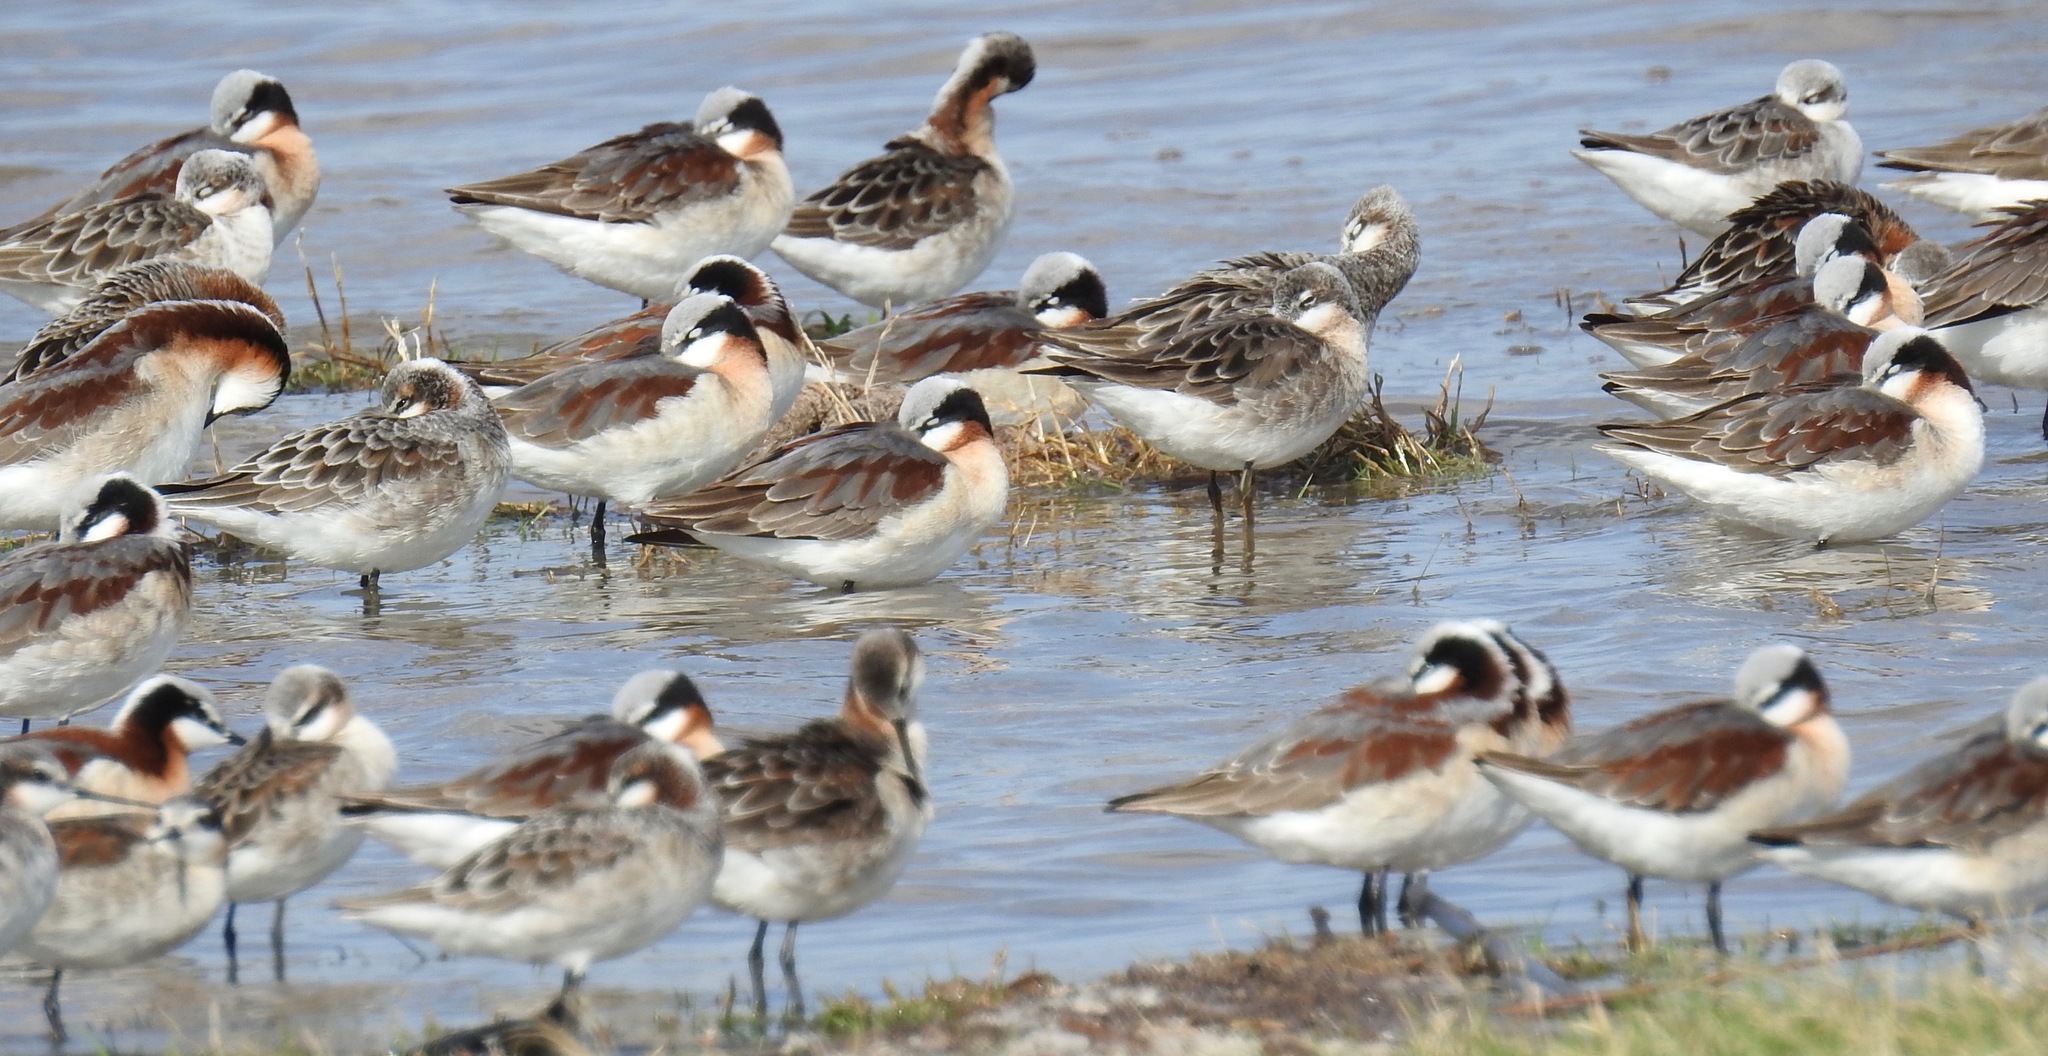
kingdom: Animalia
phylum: Chordata
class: Aves
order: Charadriiformes
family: Scolopacidae
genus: Phalaropus
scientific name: Phalaropus tricolor
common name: Wilson's phalarope
